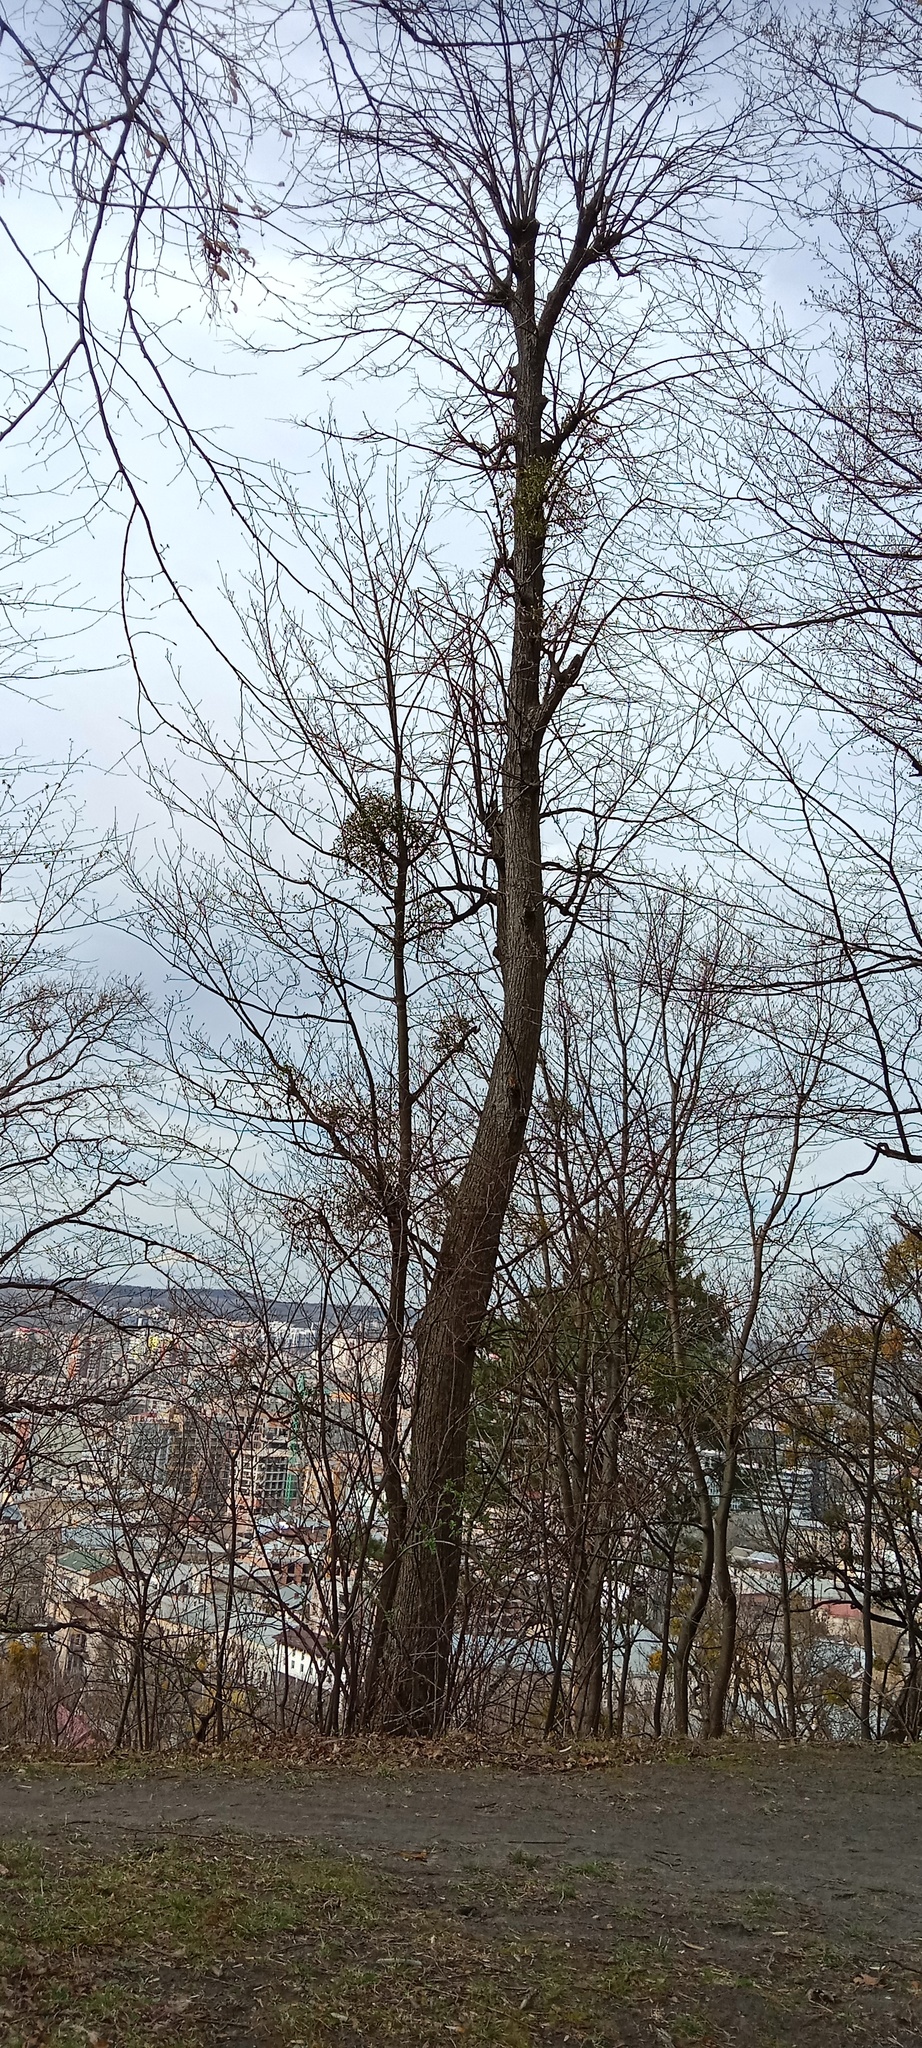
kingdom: Plantae
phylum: Tracheophyta
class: Magnoliopsida
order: Santalales
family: Viscaceae
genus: Viscum
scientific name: Viscum album
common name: Mistletoe
